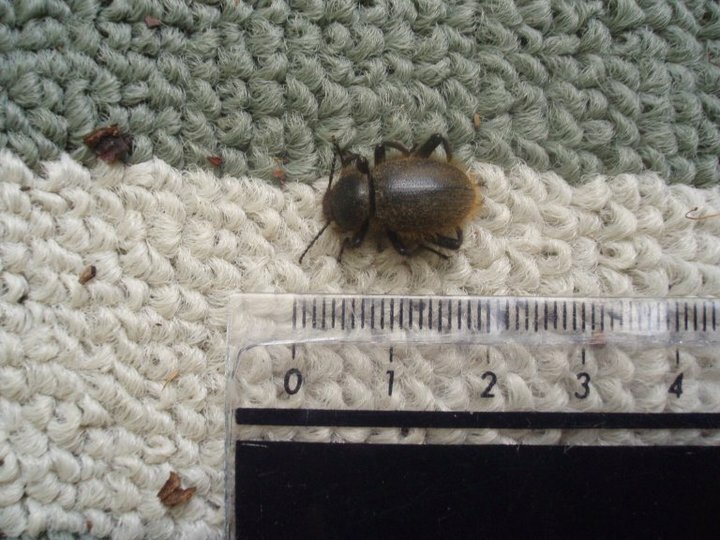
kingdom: Animalia
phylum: Arthropoda
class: Insecta
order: Coleoptera
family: Tenebrionidae
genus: Eleodes
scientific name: Eleodes osculans
